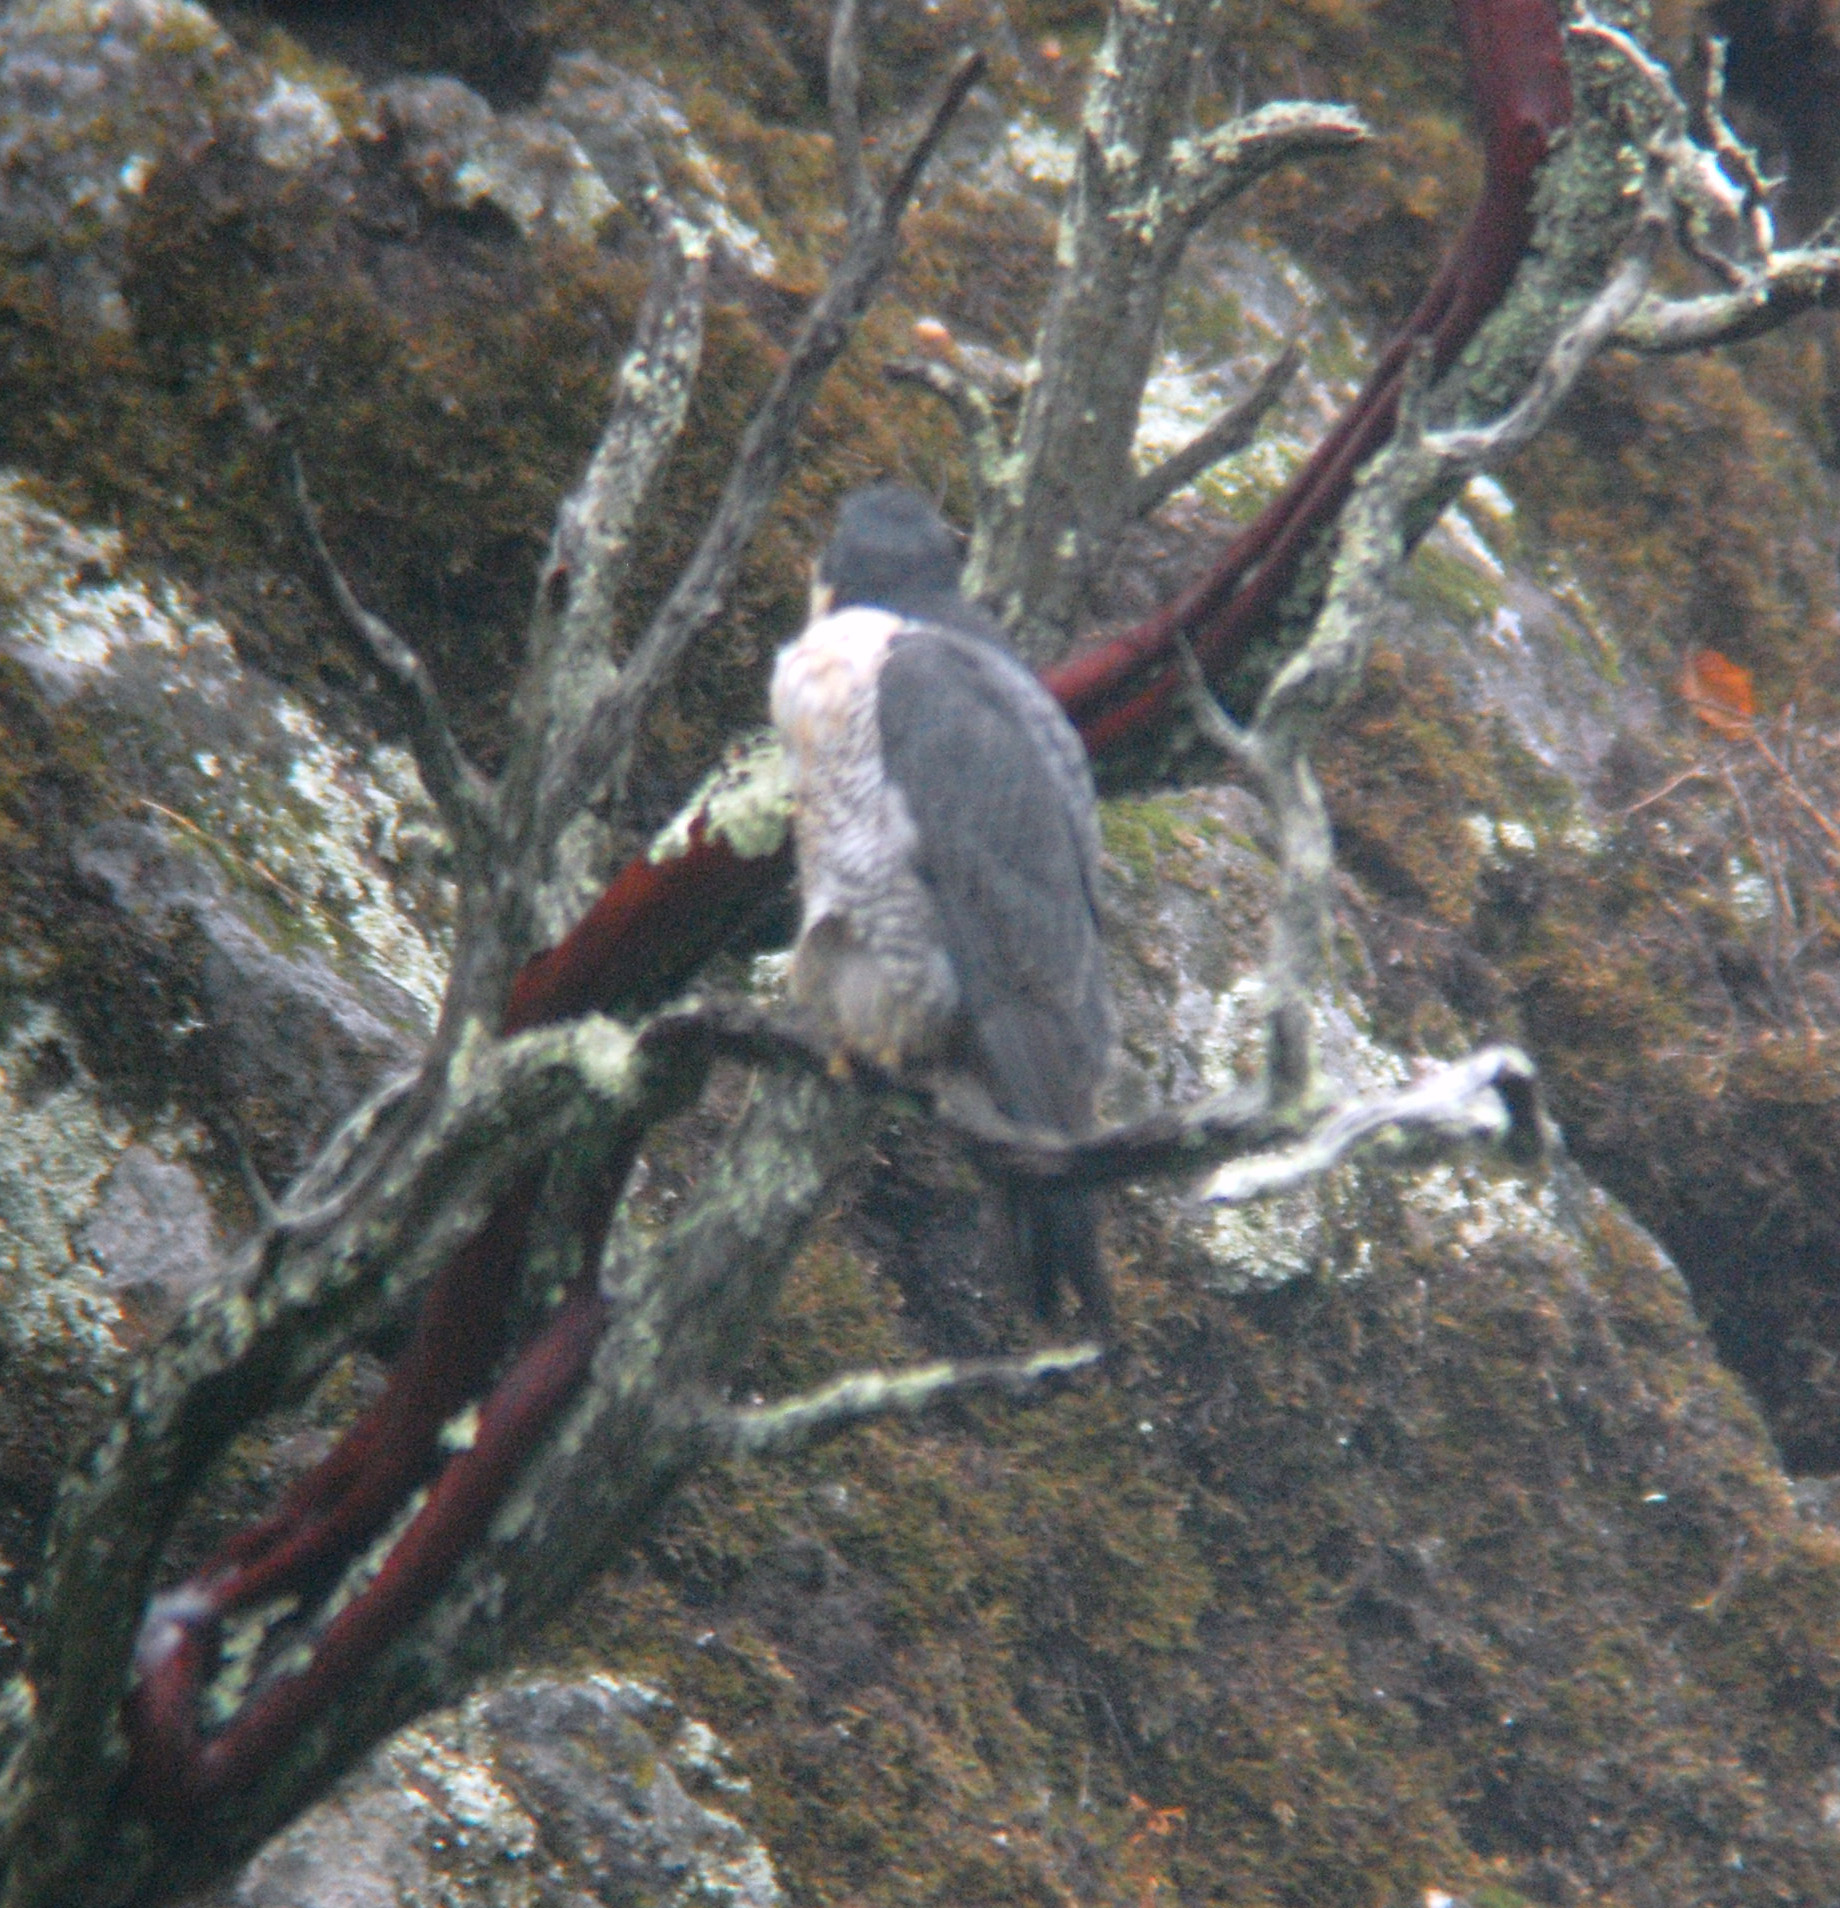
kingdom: Animalia
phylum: Chordata
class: Aves
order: Falconiformes
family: Falconidae
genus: Falco
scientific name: Falco peregrinus
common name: Peregrine falcon
